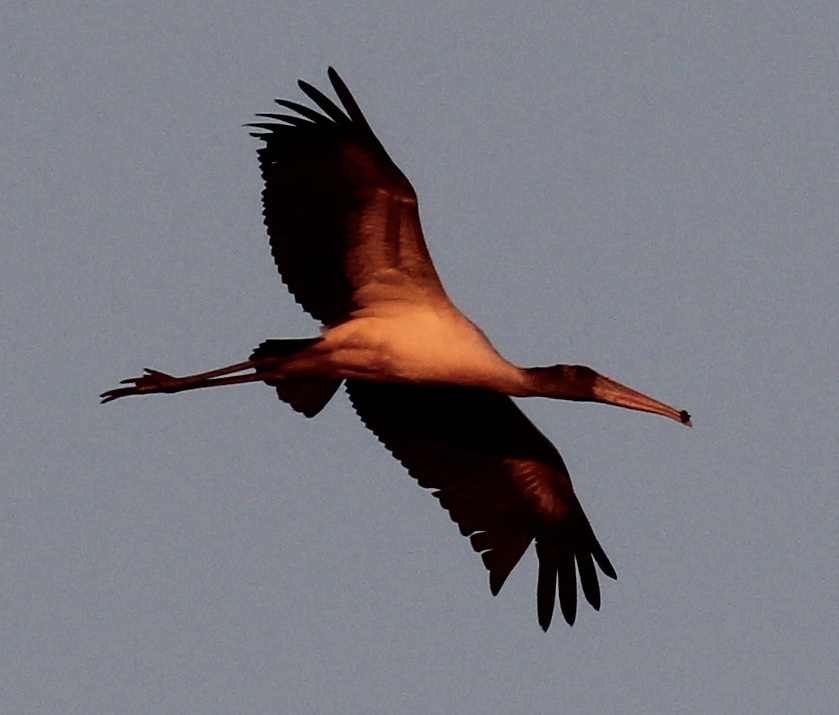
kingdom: Animalia
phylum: Chordata
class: Aves
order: Ciconiiformes
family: Ciconiidae
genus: Mycteria
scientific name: Mycteria americana
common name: Wood stork
